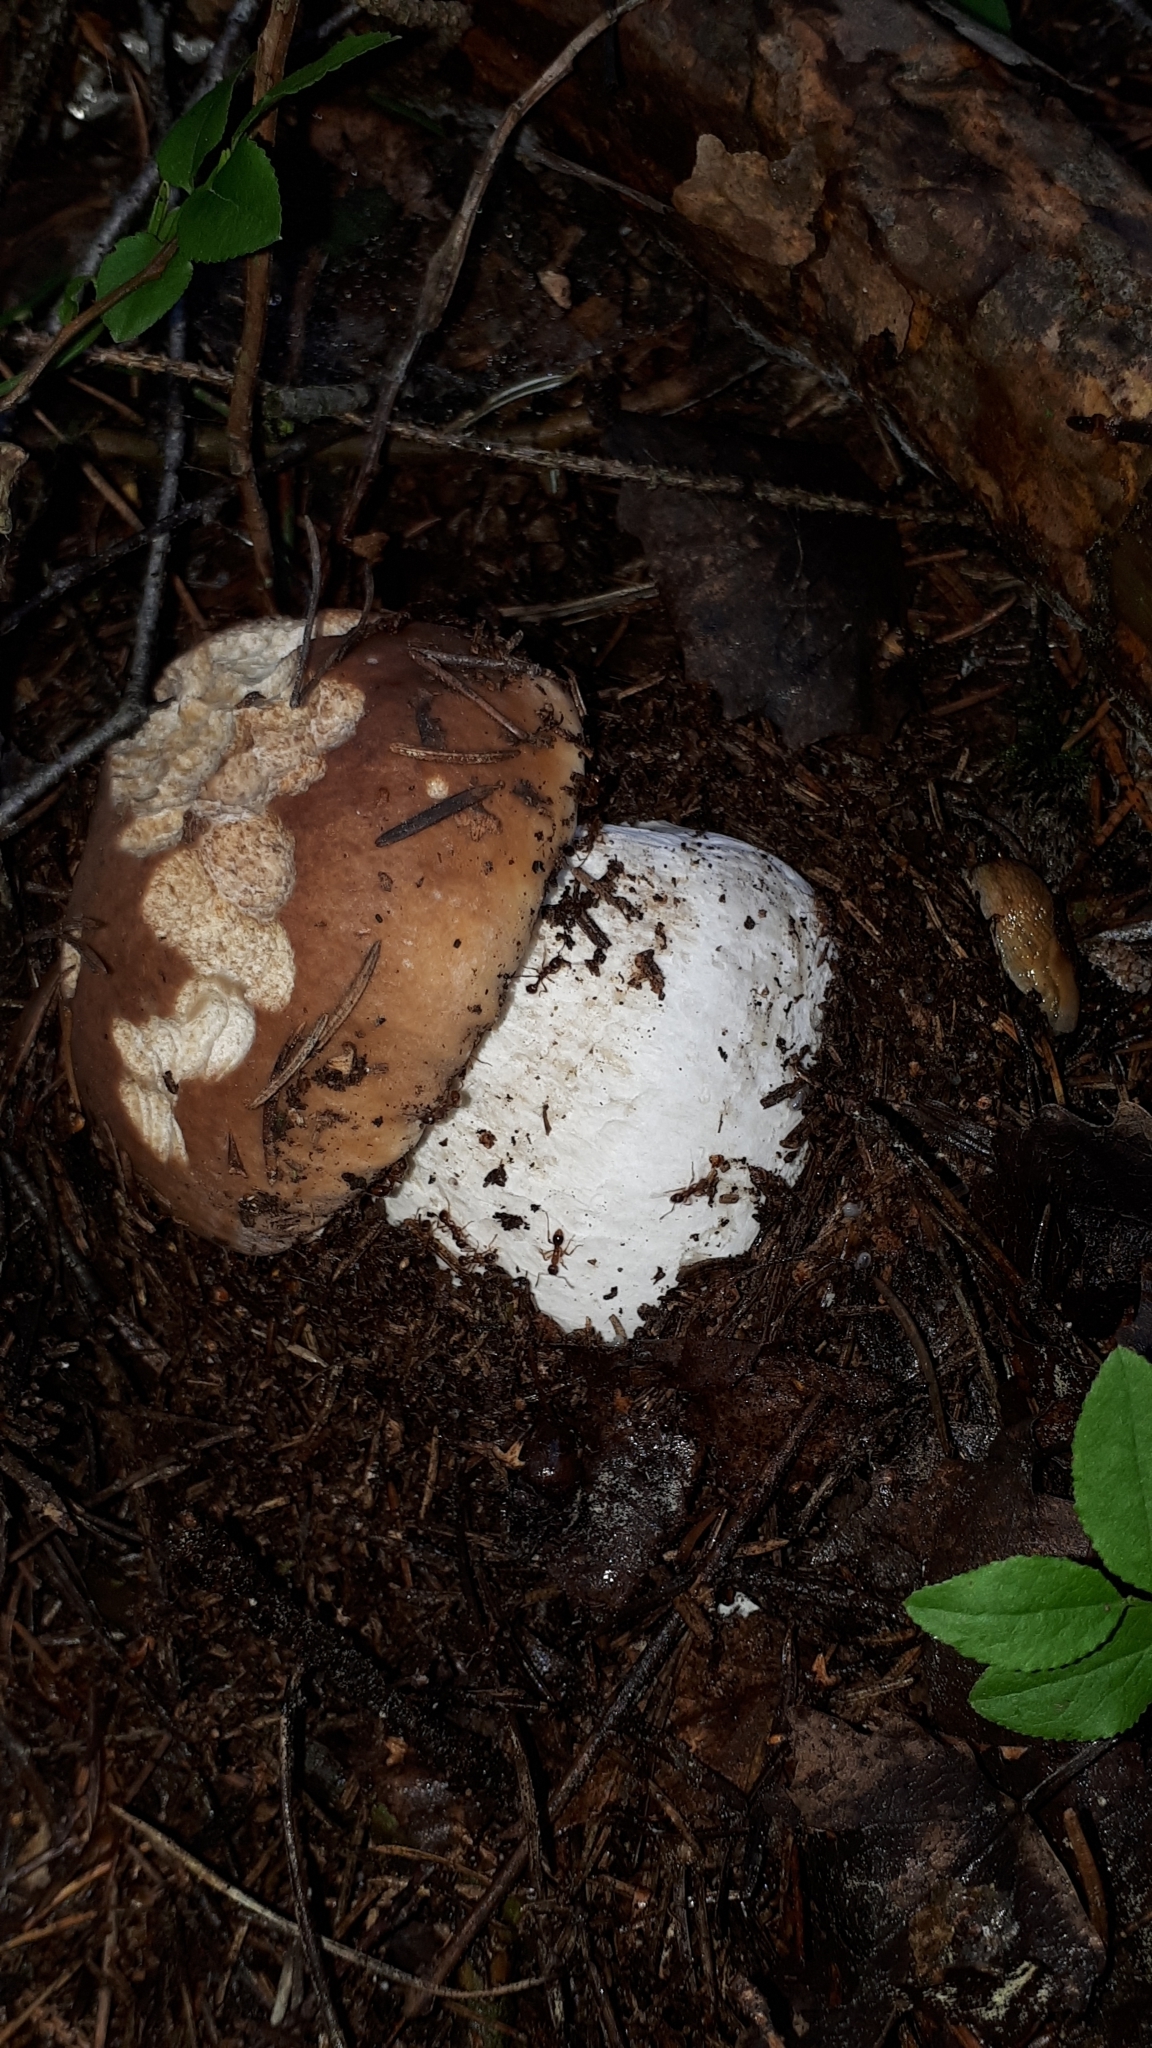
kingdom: Fungi
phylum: Basidiomycota
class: Agaricomycetes
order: Boletales
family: Boletaceae
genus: Boletus
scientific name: Boletus edulis
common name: Cep
